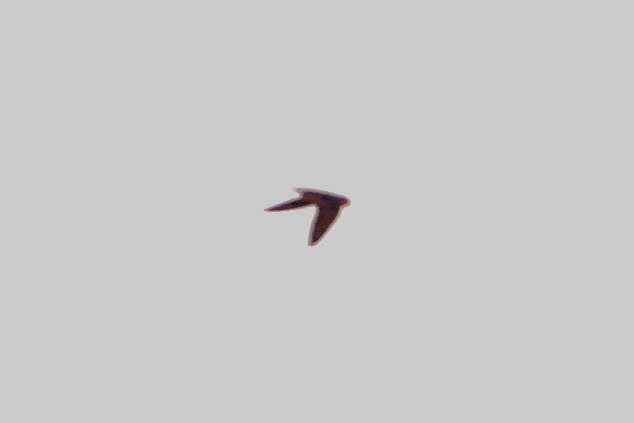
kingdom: Animalia
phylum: Chordata
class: Aves
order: Apodiformes
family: Apodidae
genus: Chaetura
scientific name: Chaetura pelagica
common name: Chimney swift
